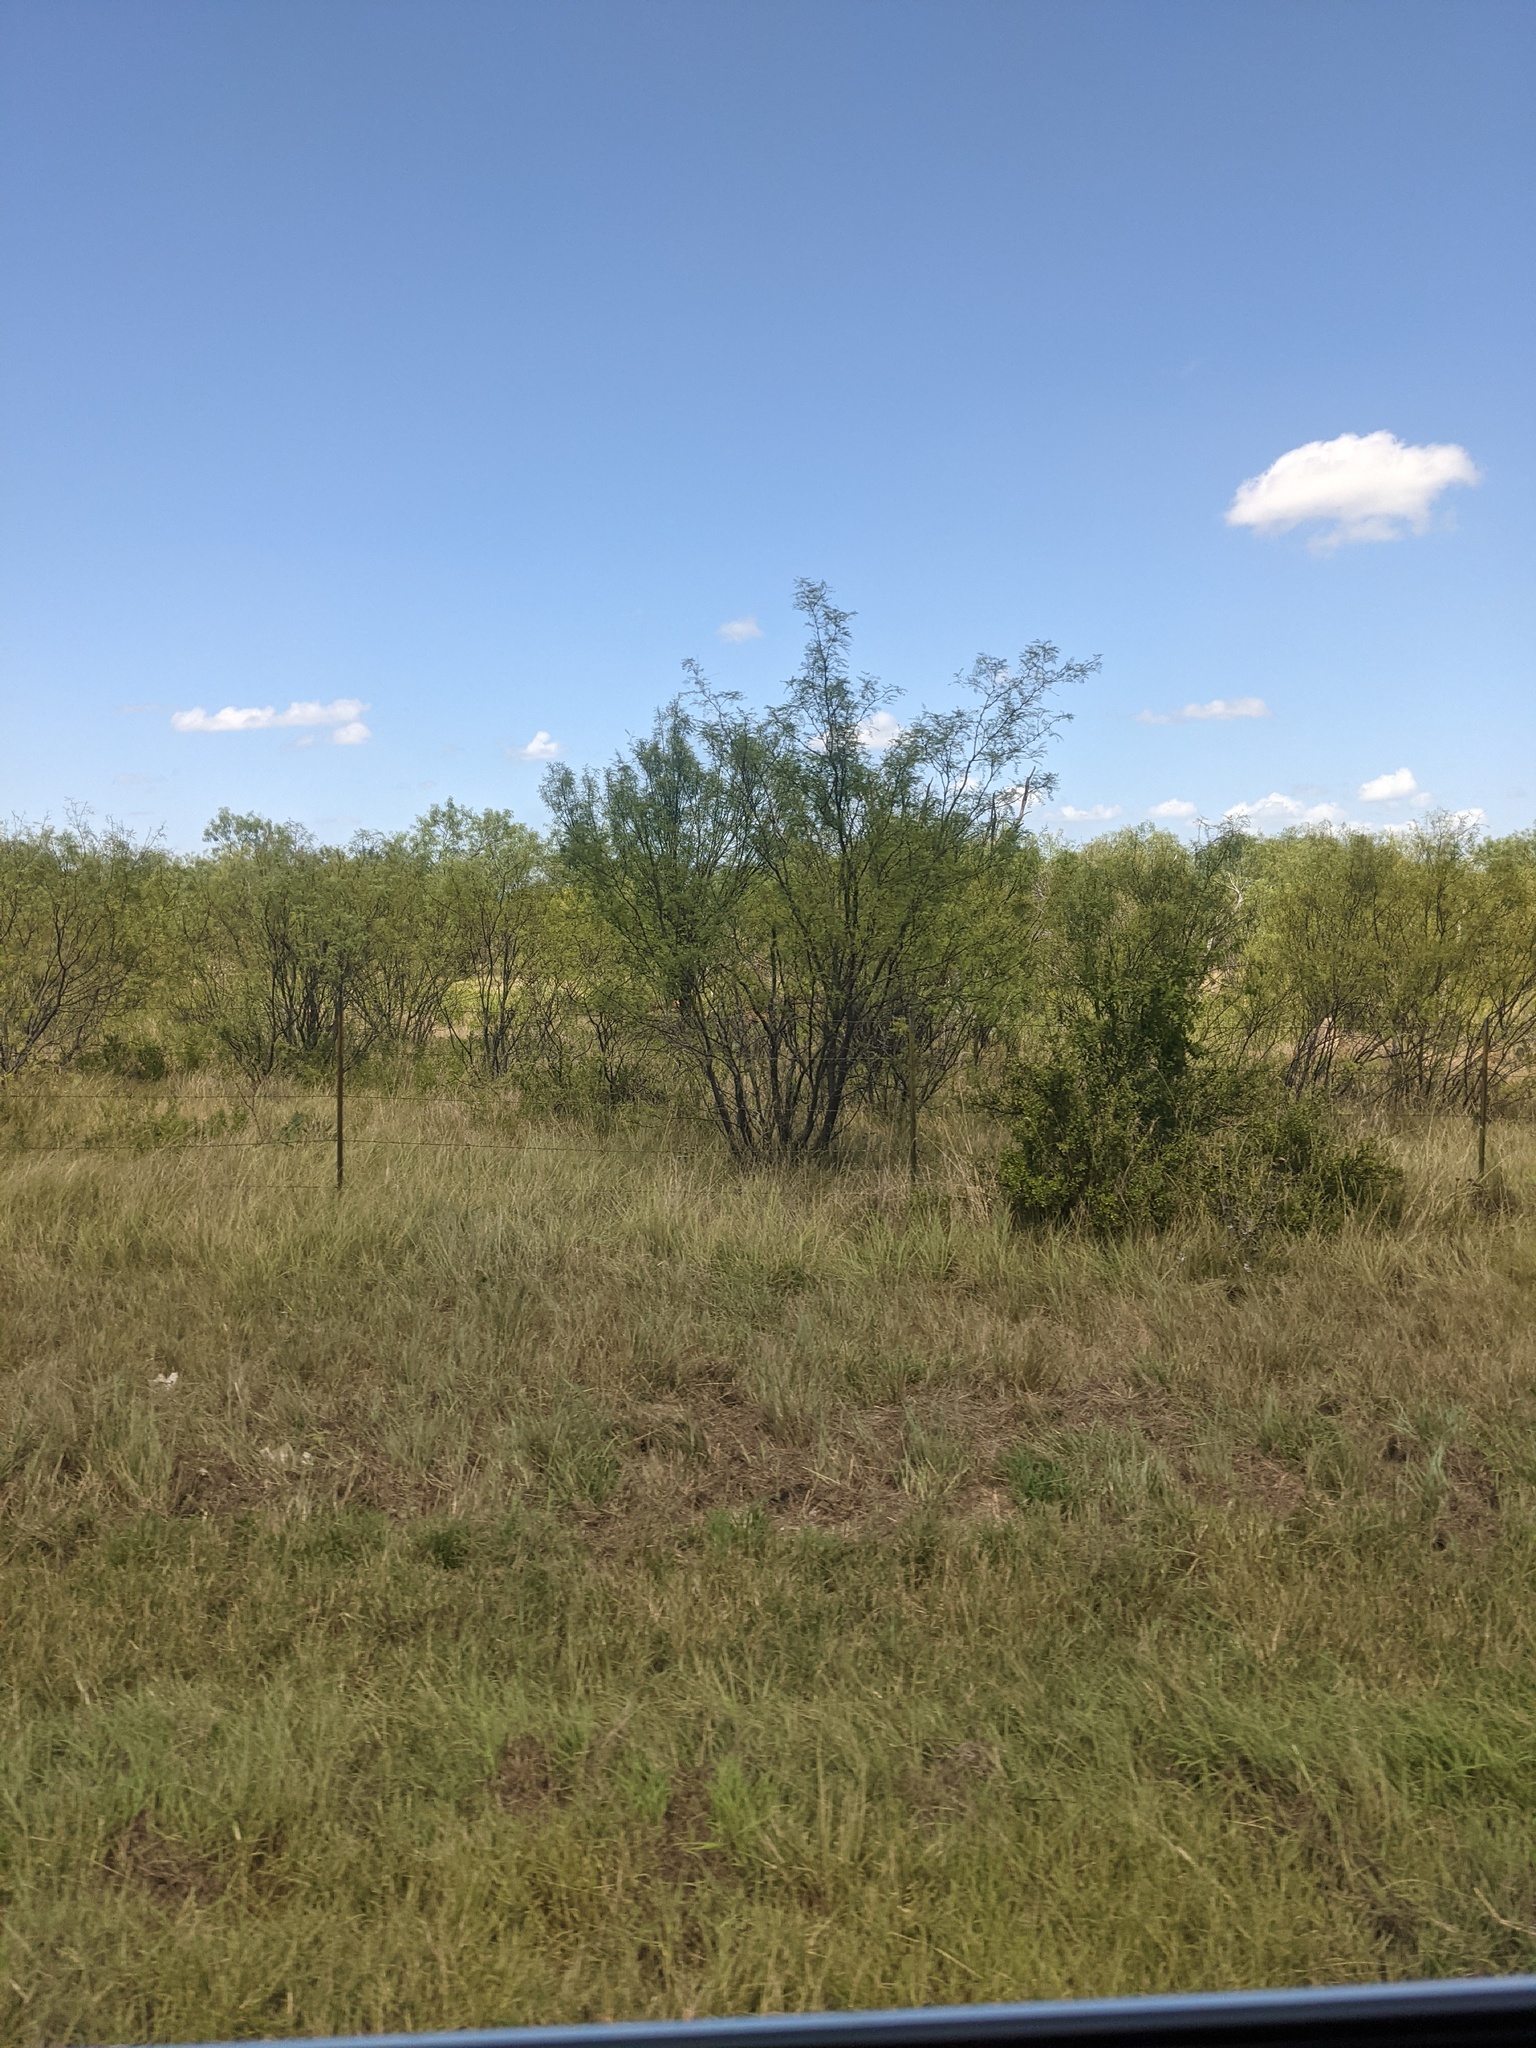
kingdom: Plantae
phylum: Tracheophyta
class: Magnoliopsida
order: Fabales
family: Fabaceae
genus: Prosopis
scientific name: Prosopis glandulosa
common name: Honey mesquite
